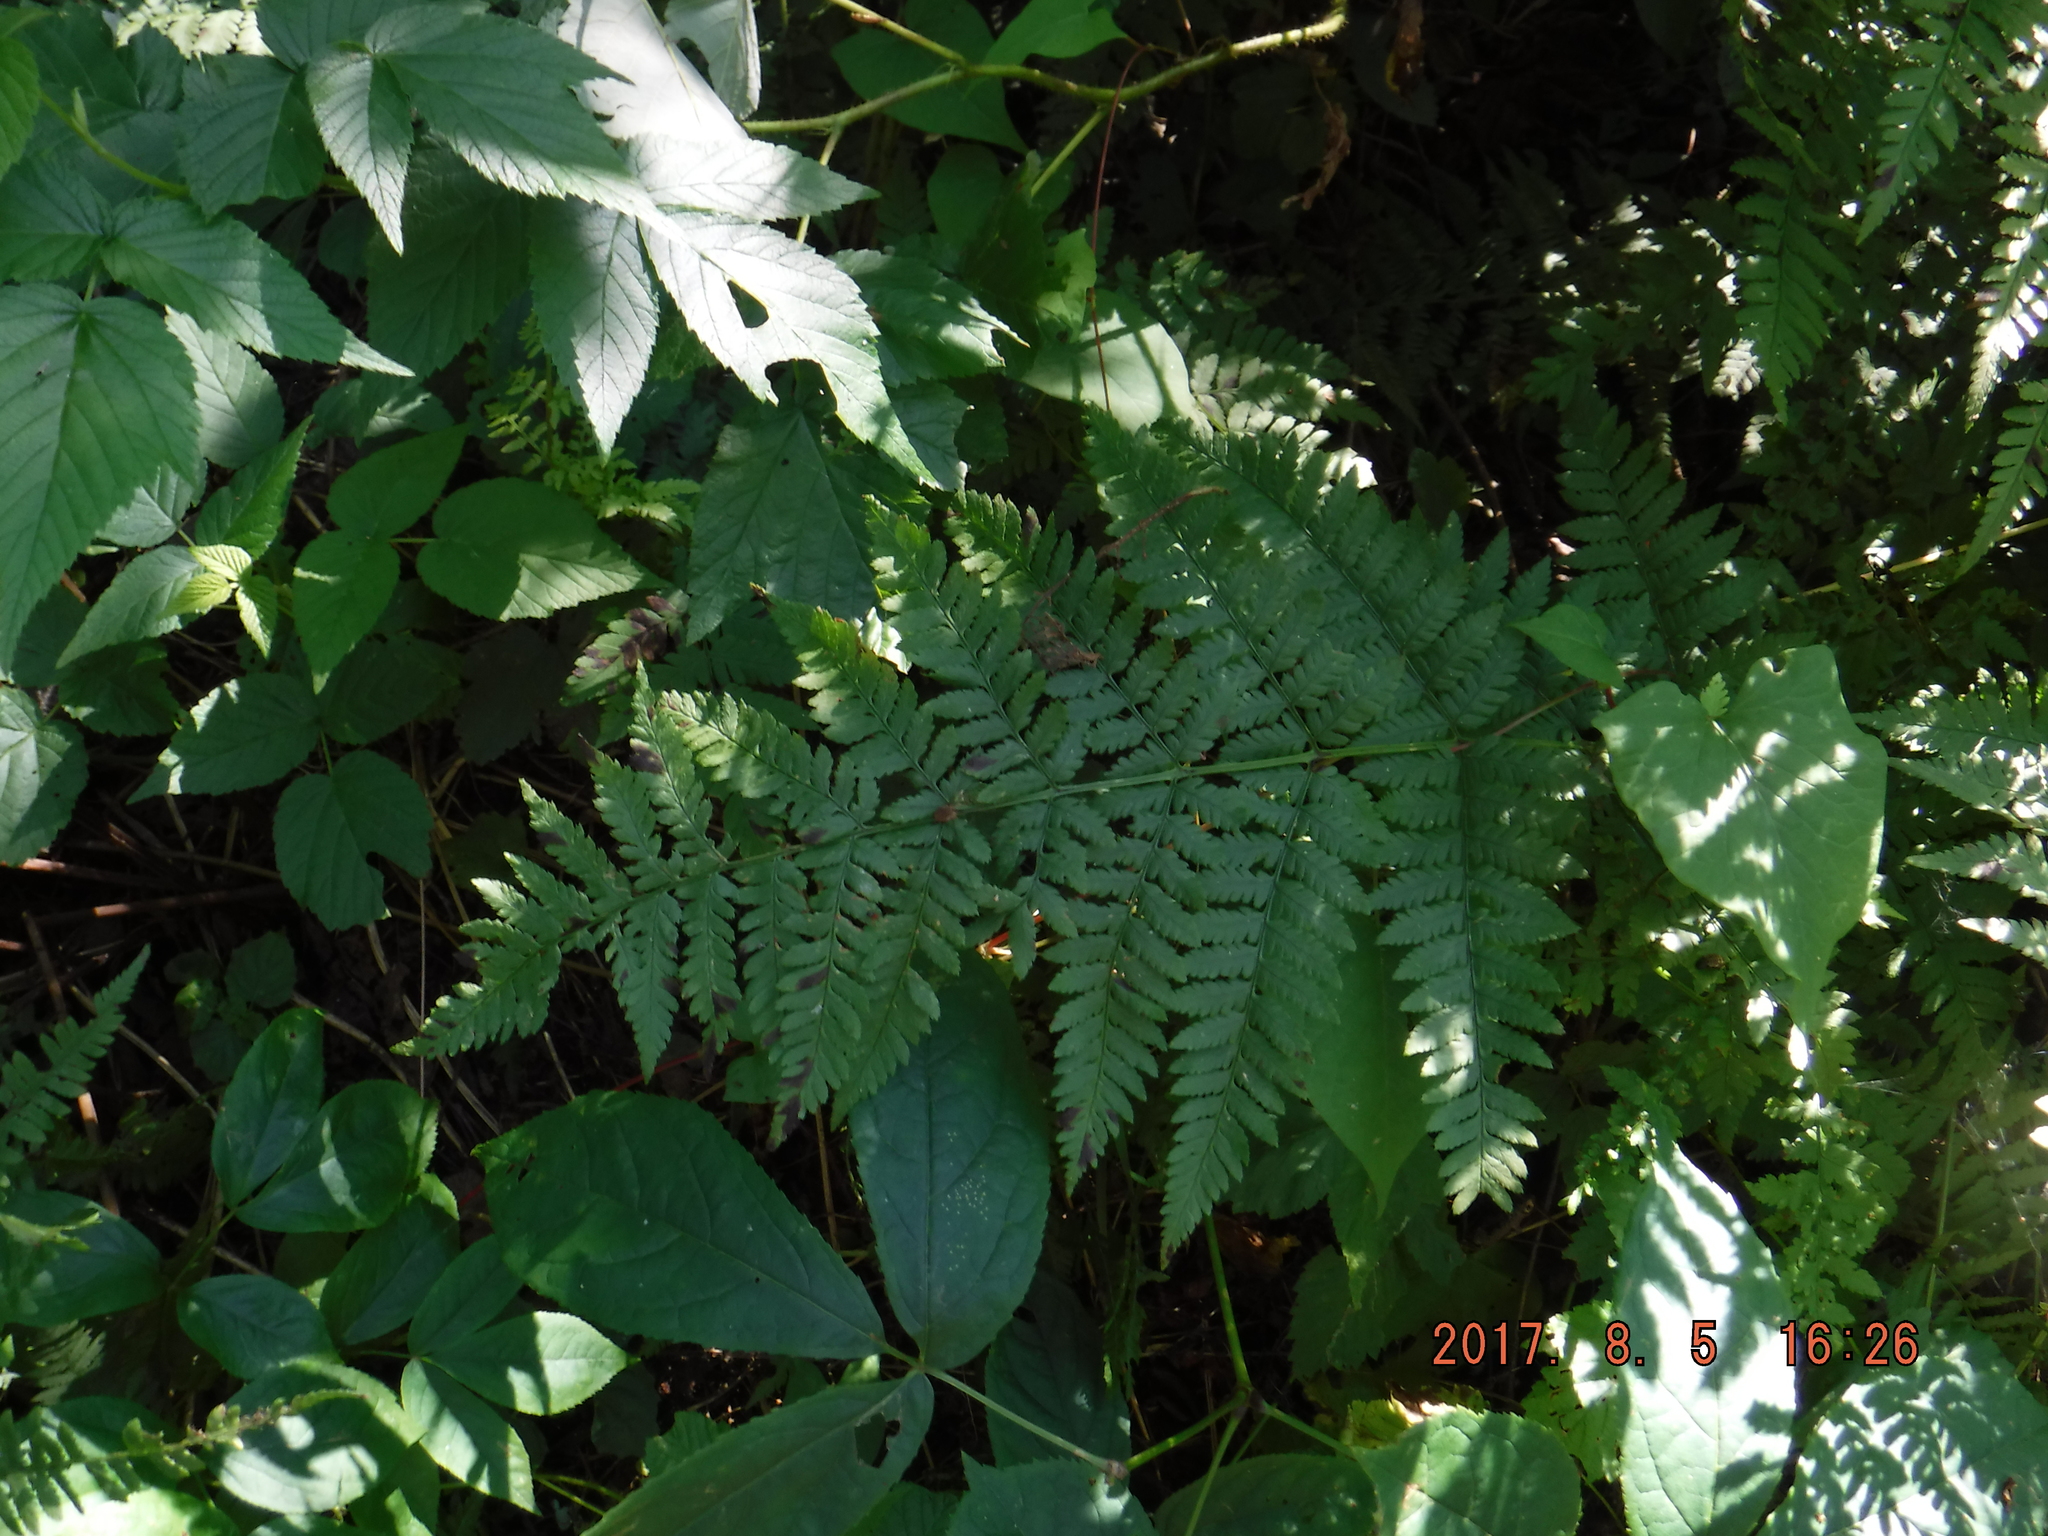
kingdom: Plantae
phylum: Tracheophyta
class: Polypodiopsida
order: Polypodiales
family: Dryopteridaceae
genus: Dryopteris
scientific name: Dryopteris carthusiana
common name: Narrow buckler-fern
